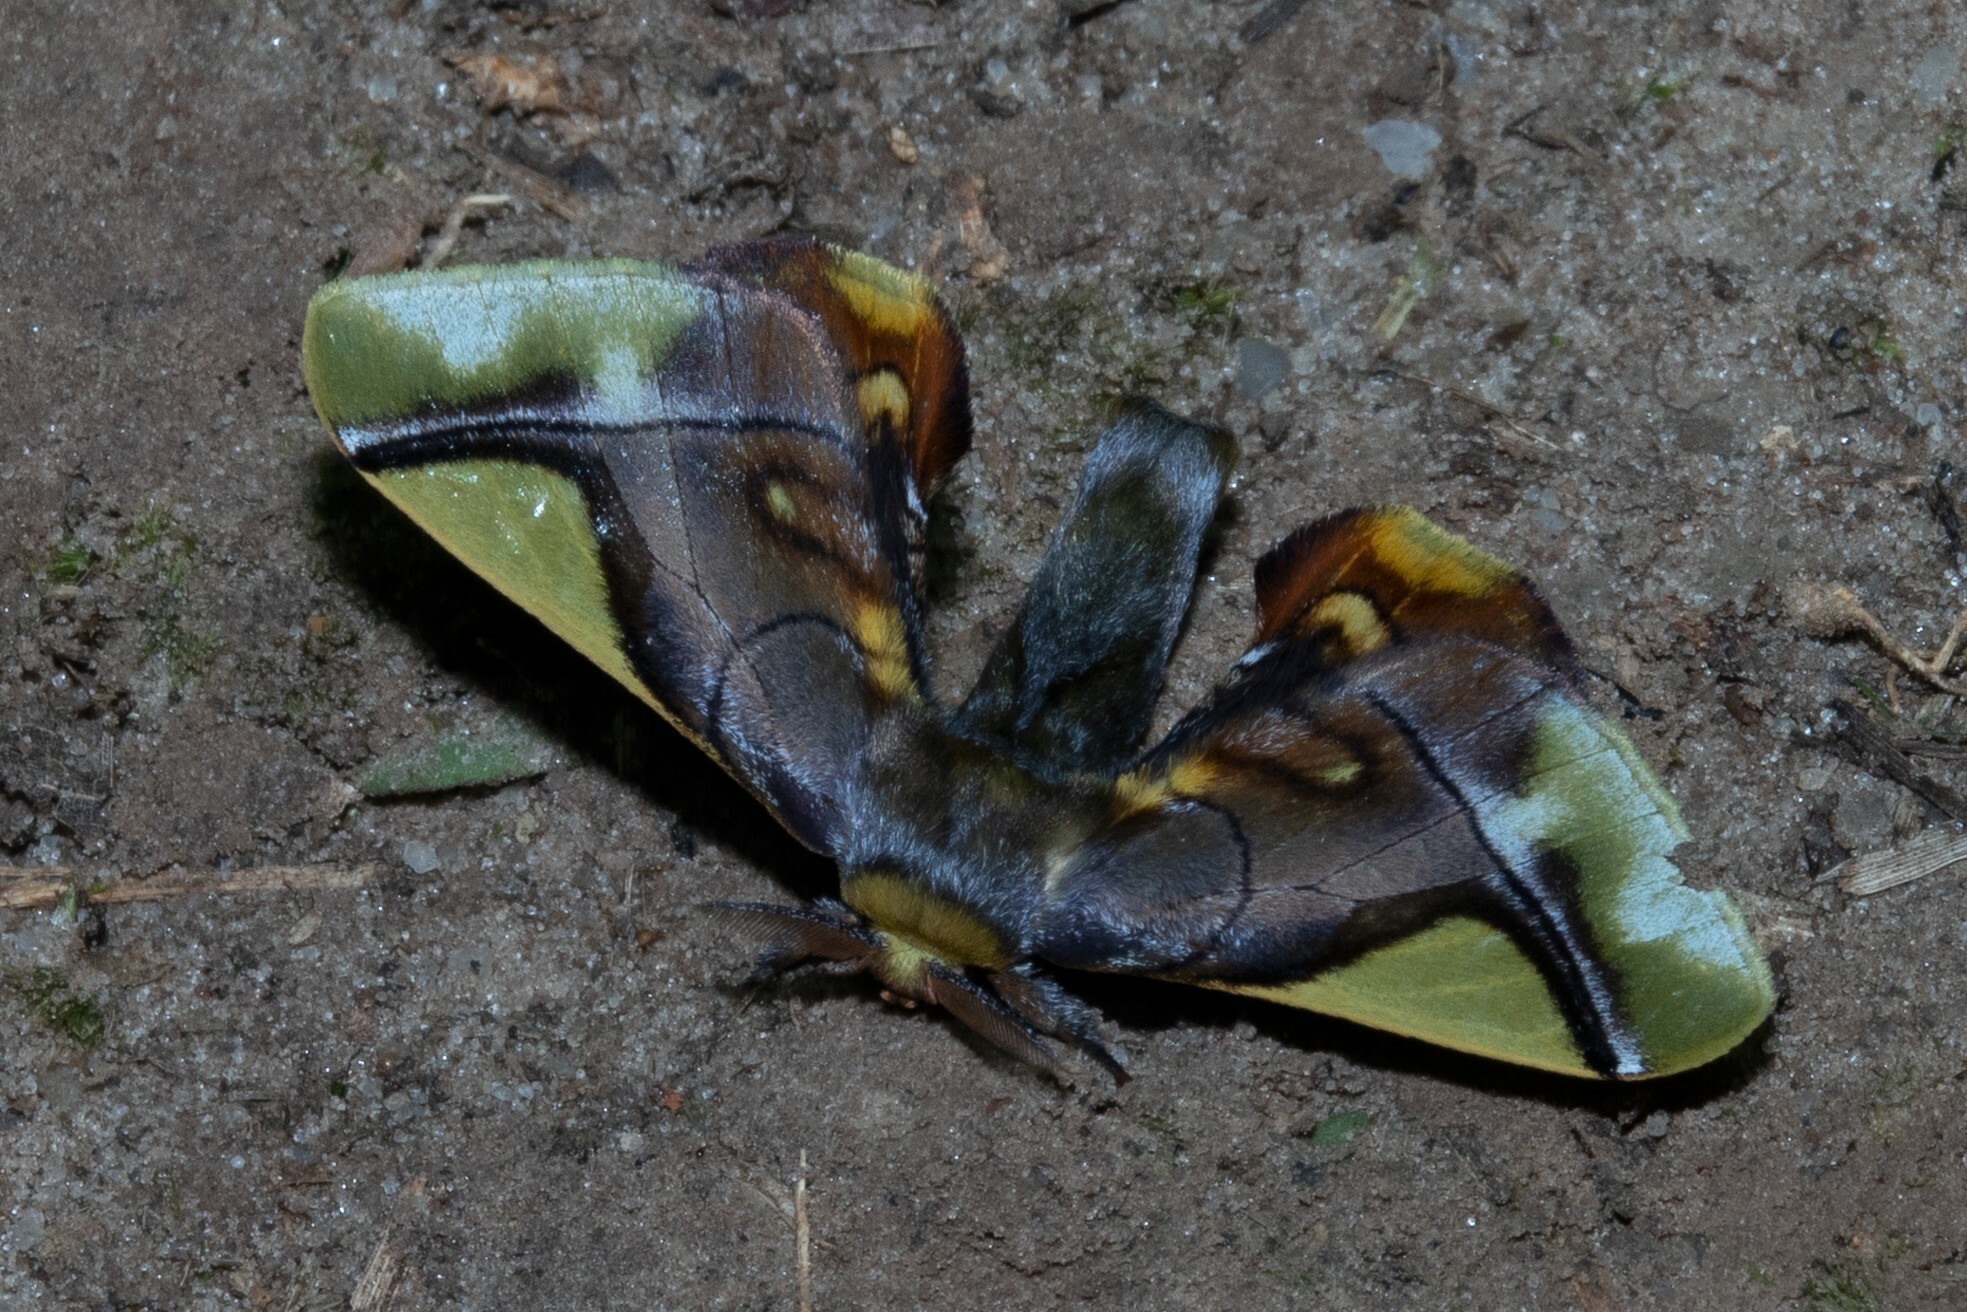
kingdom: Animalia
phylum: Arthropoda
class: Insecta
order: Lepidoptera
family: Bombycidae
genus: Epia
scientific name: Epia muscosa
